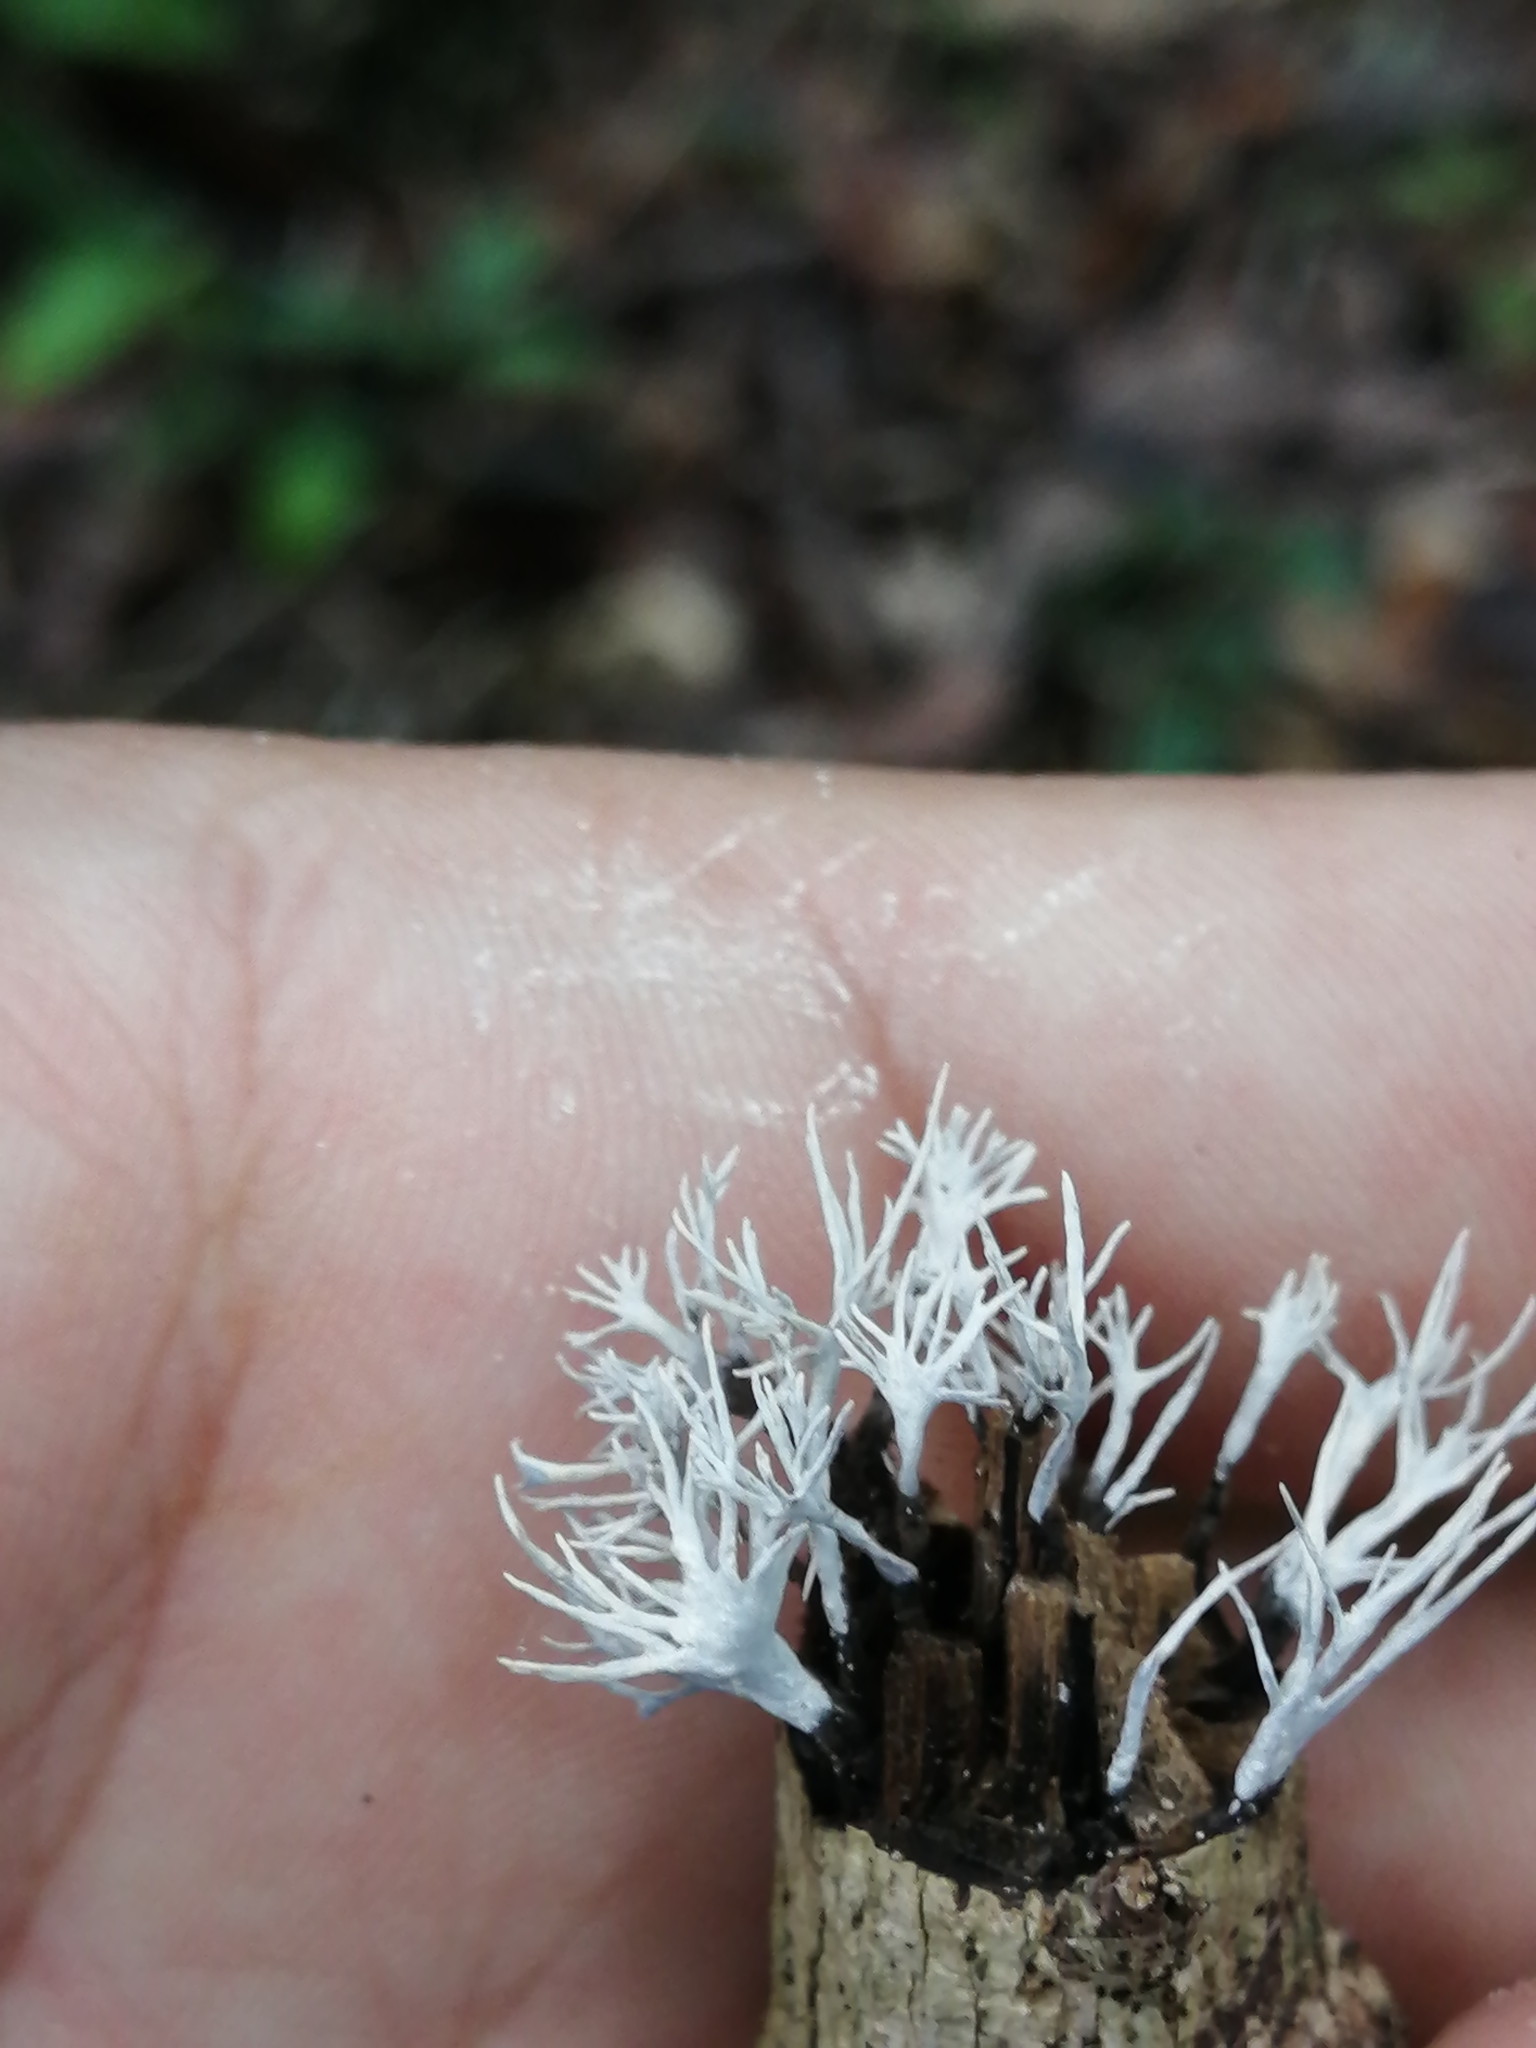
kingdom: Fungi
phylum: Basidiomycota
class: Agaricomycetes
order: Gomphales
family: Lentariaceae
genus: Lentaria
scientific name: Lentaria surculus
